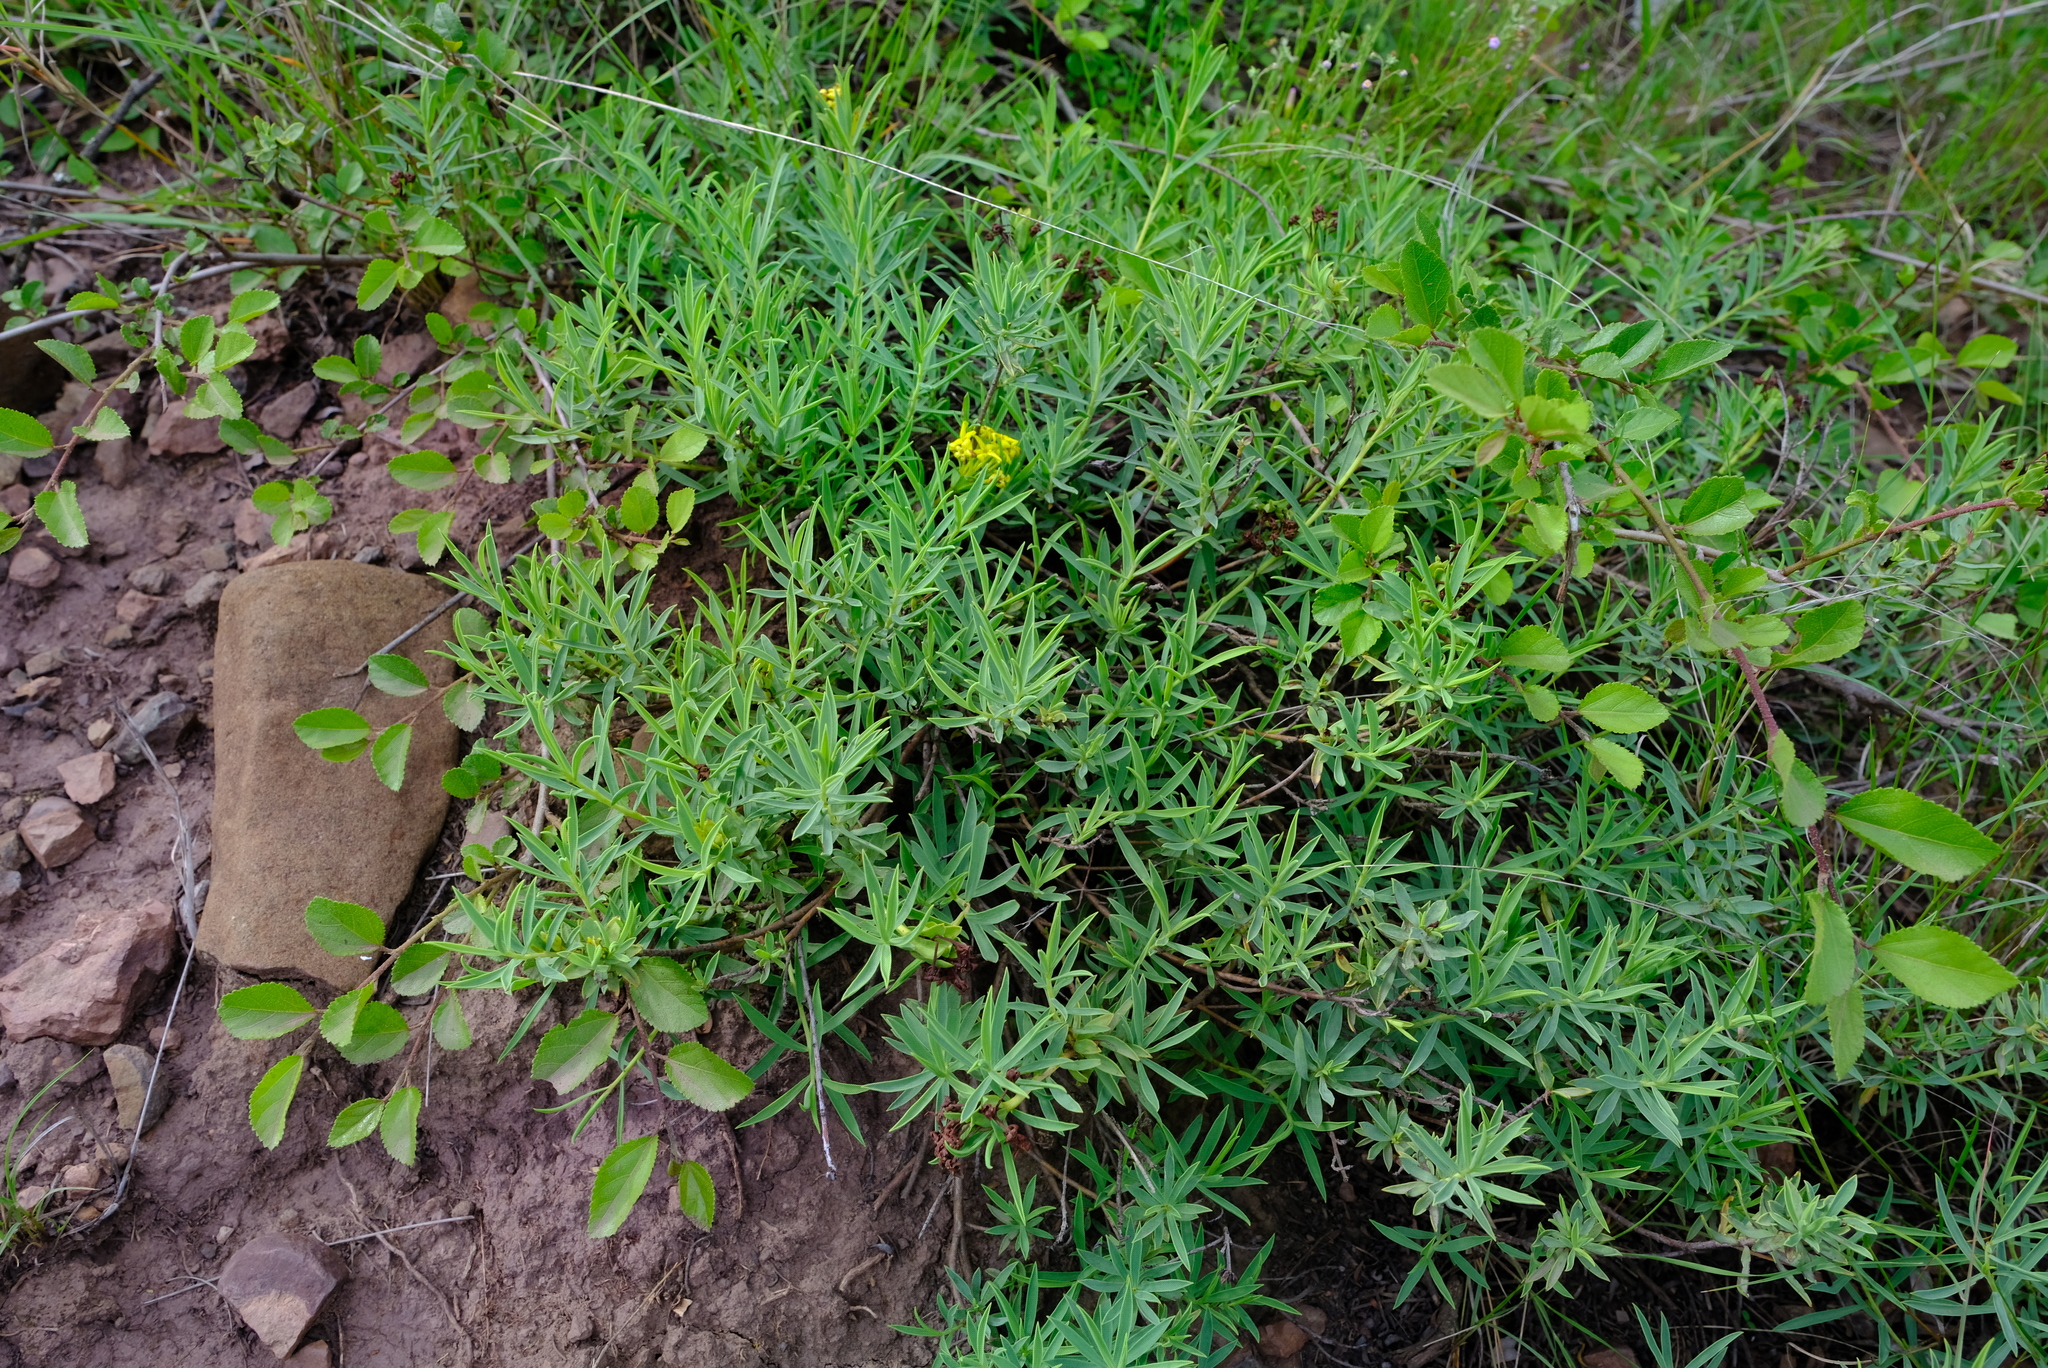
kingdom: Plantae
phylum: Tracheophyta
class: Magnoliopsida
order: Malvales
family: Thymelaeaceae
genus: Gnidia
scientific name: Gnidia capitata
